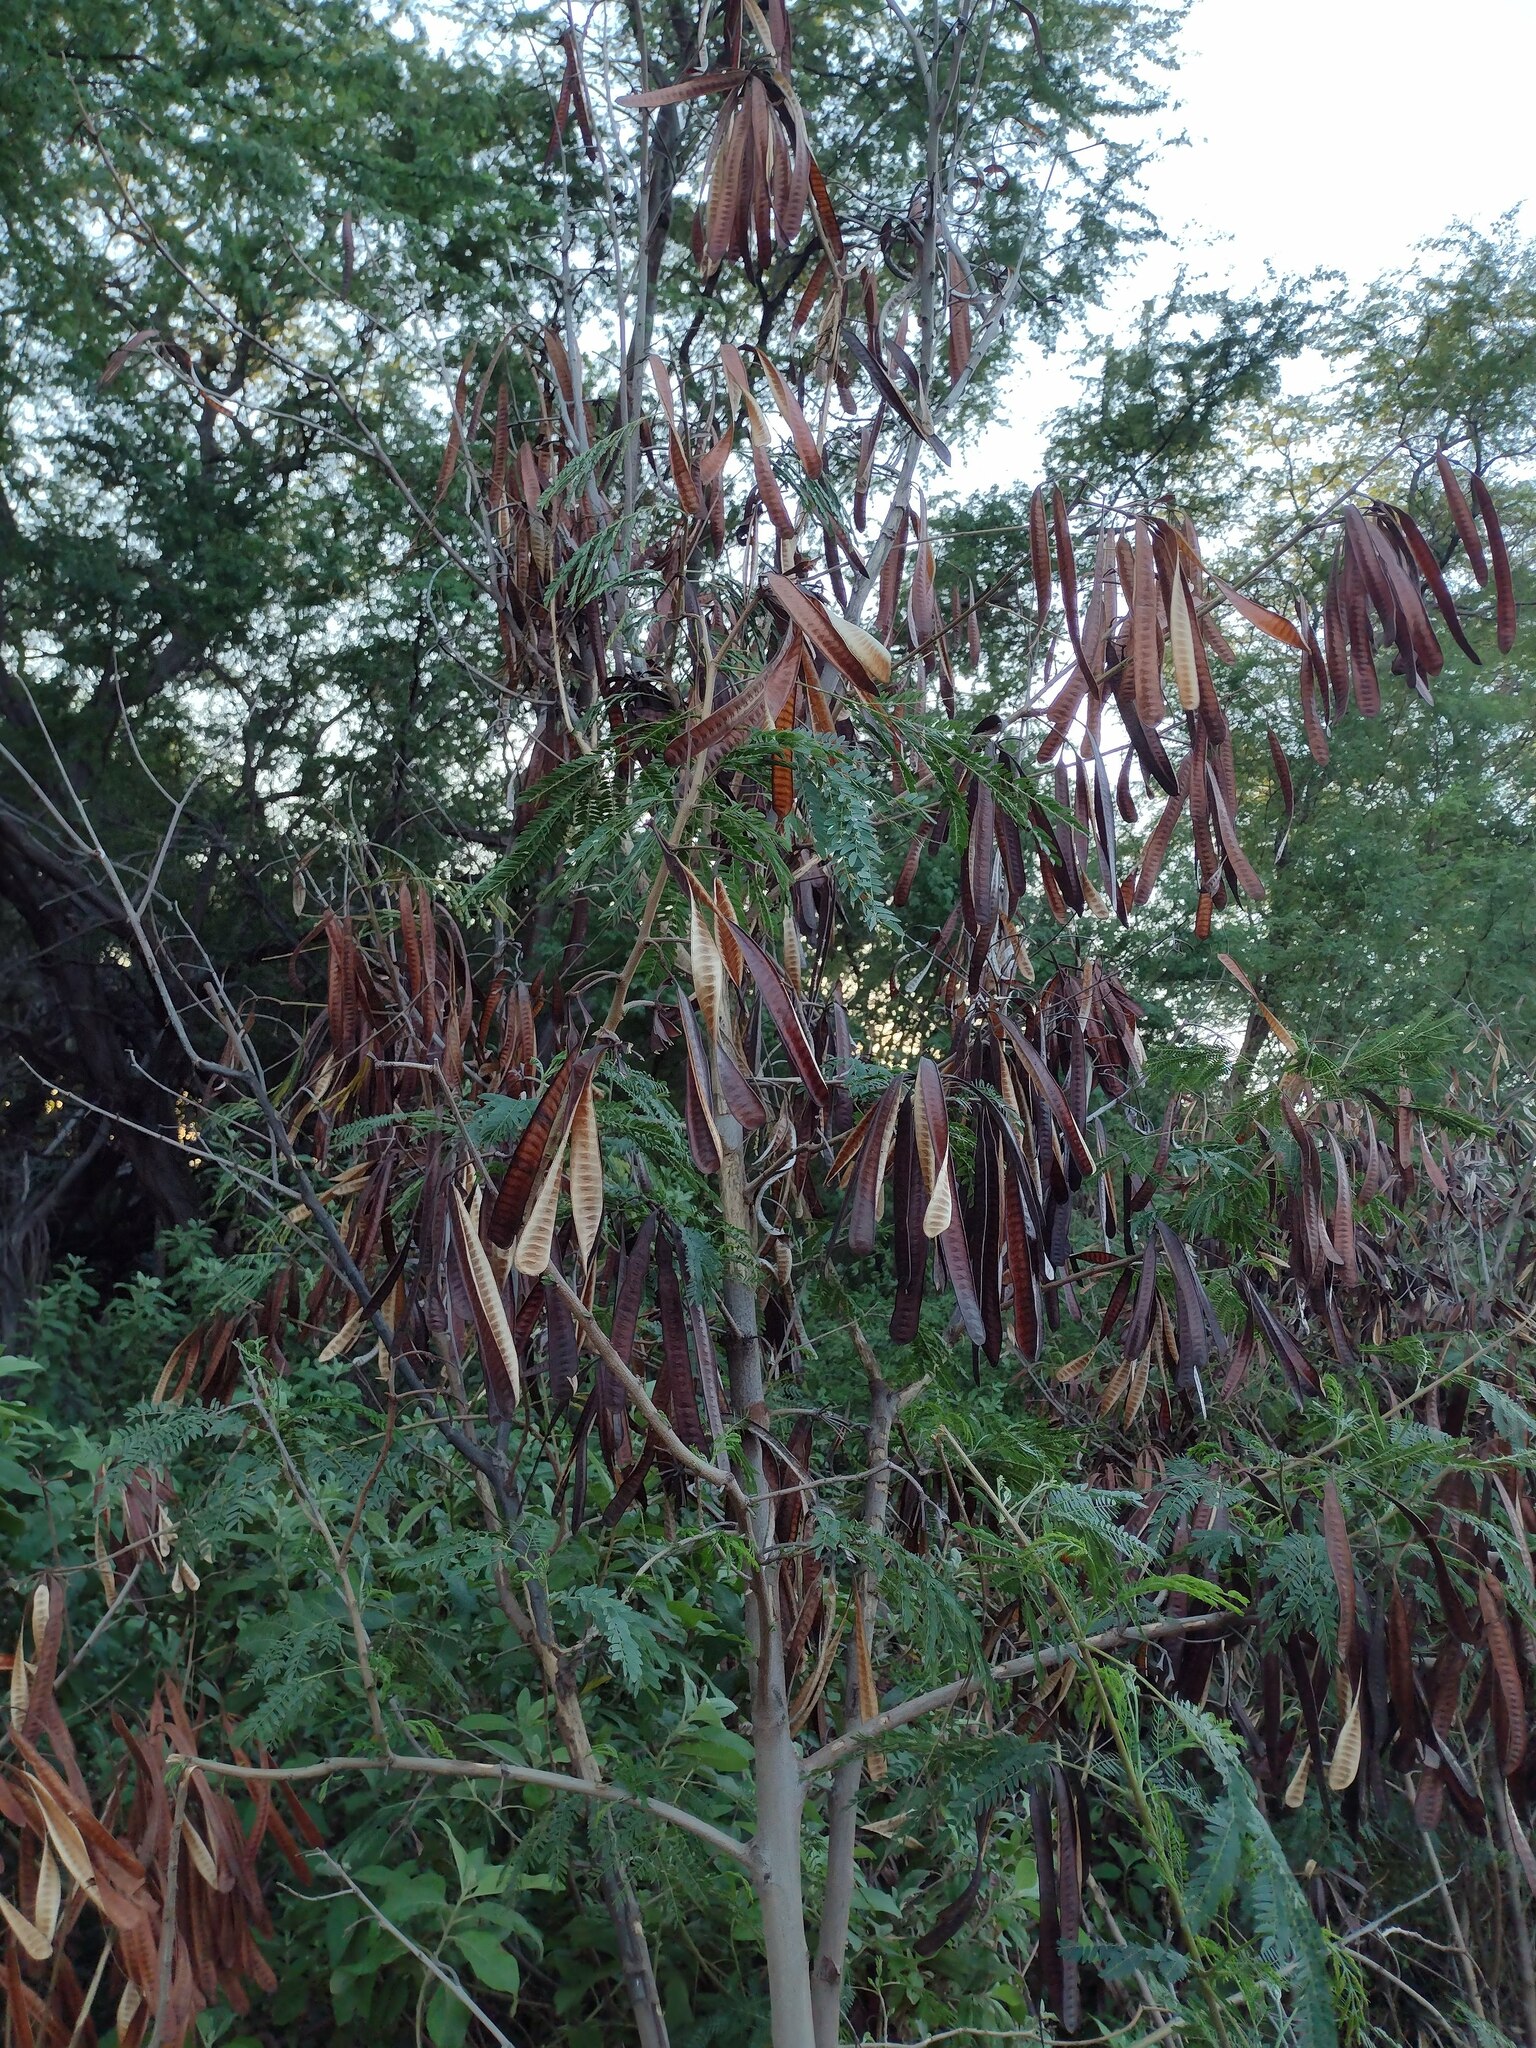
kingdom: Plantae
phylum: Tracheophyta
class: Magnoliopsida
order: Fabales
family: Fabaceae
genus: Leucaena
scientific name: Leucaena leucocephala
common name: White leadtree
